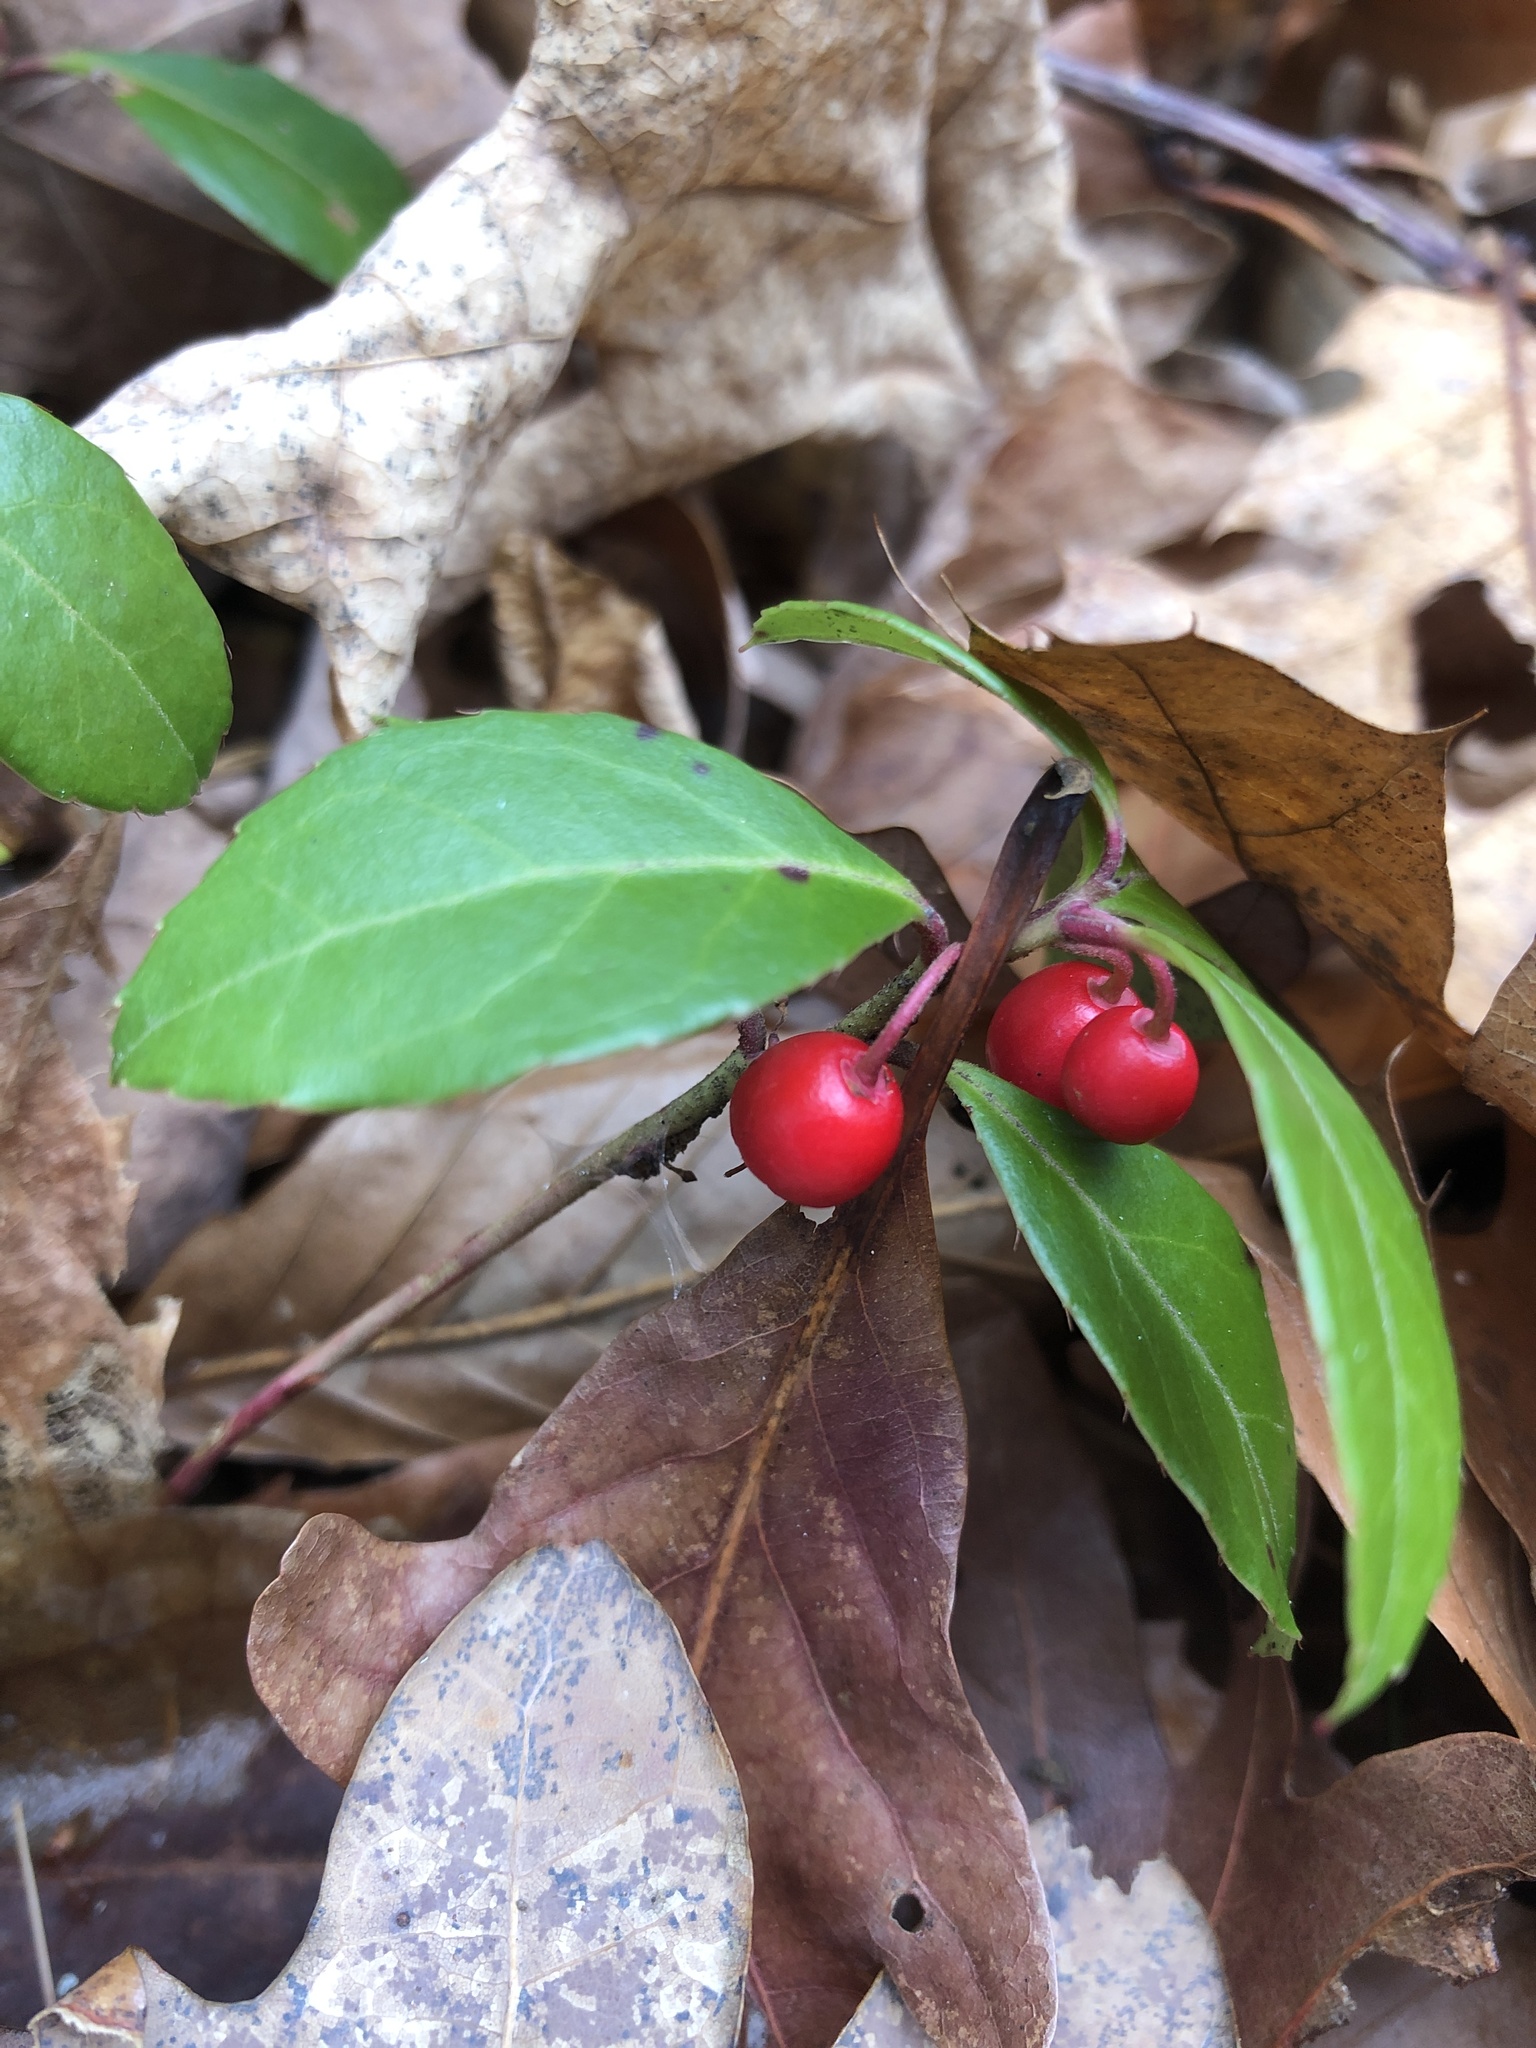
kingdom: Plantae
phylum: Tracheophyta
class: Magnoliopsida
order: Ericales
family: Ericaceae
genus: Gaultheria
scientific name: Gaultheria procumbens
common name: Checkerberry
